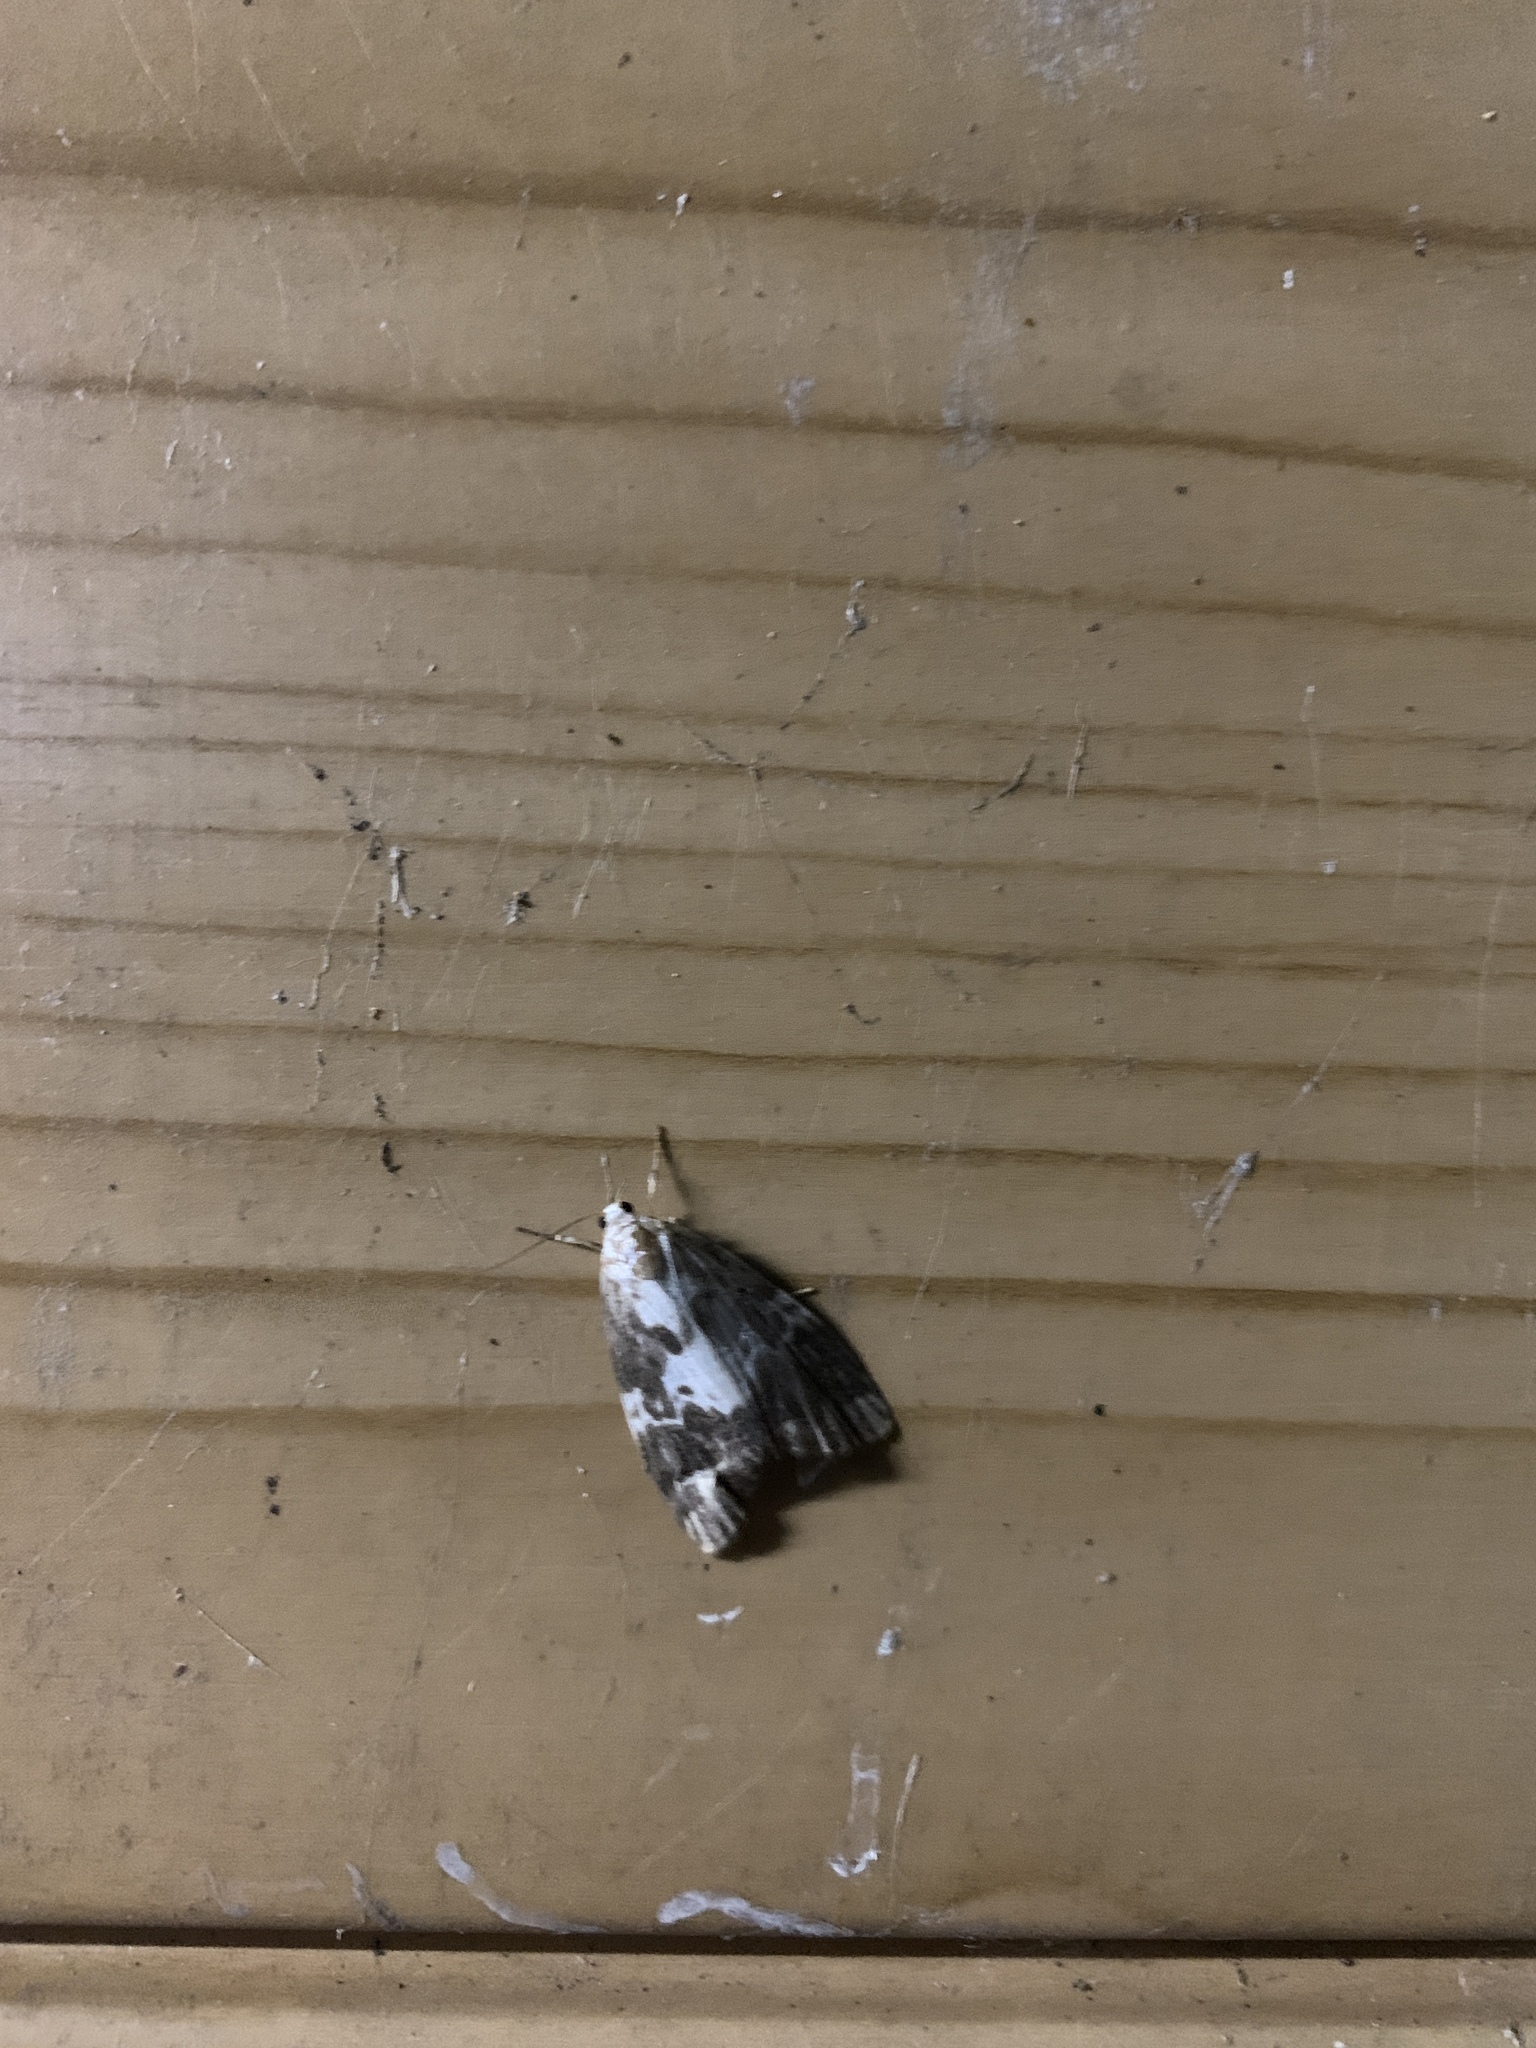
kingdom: Animalia
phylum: Arthropoda
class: Insecta
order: Lepidoptera
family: Erebidae
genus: Barsura
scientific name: Barsura albidorsalis
